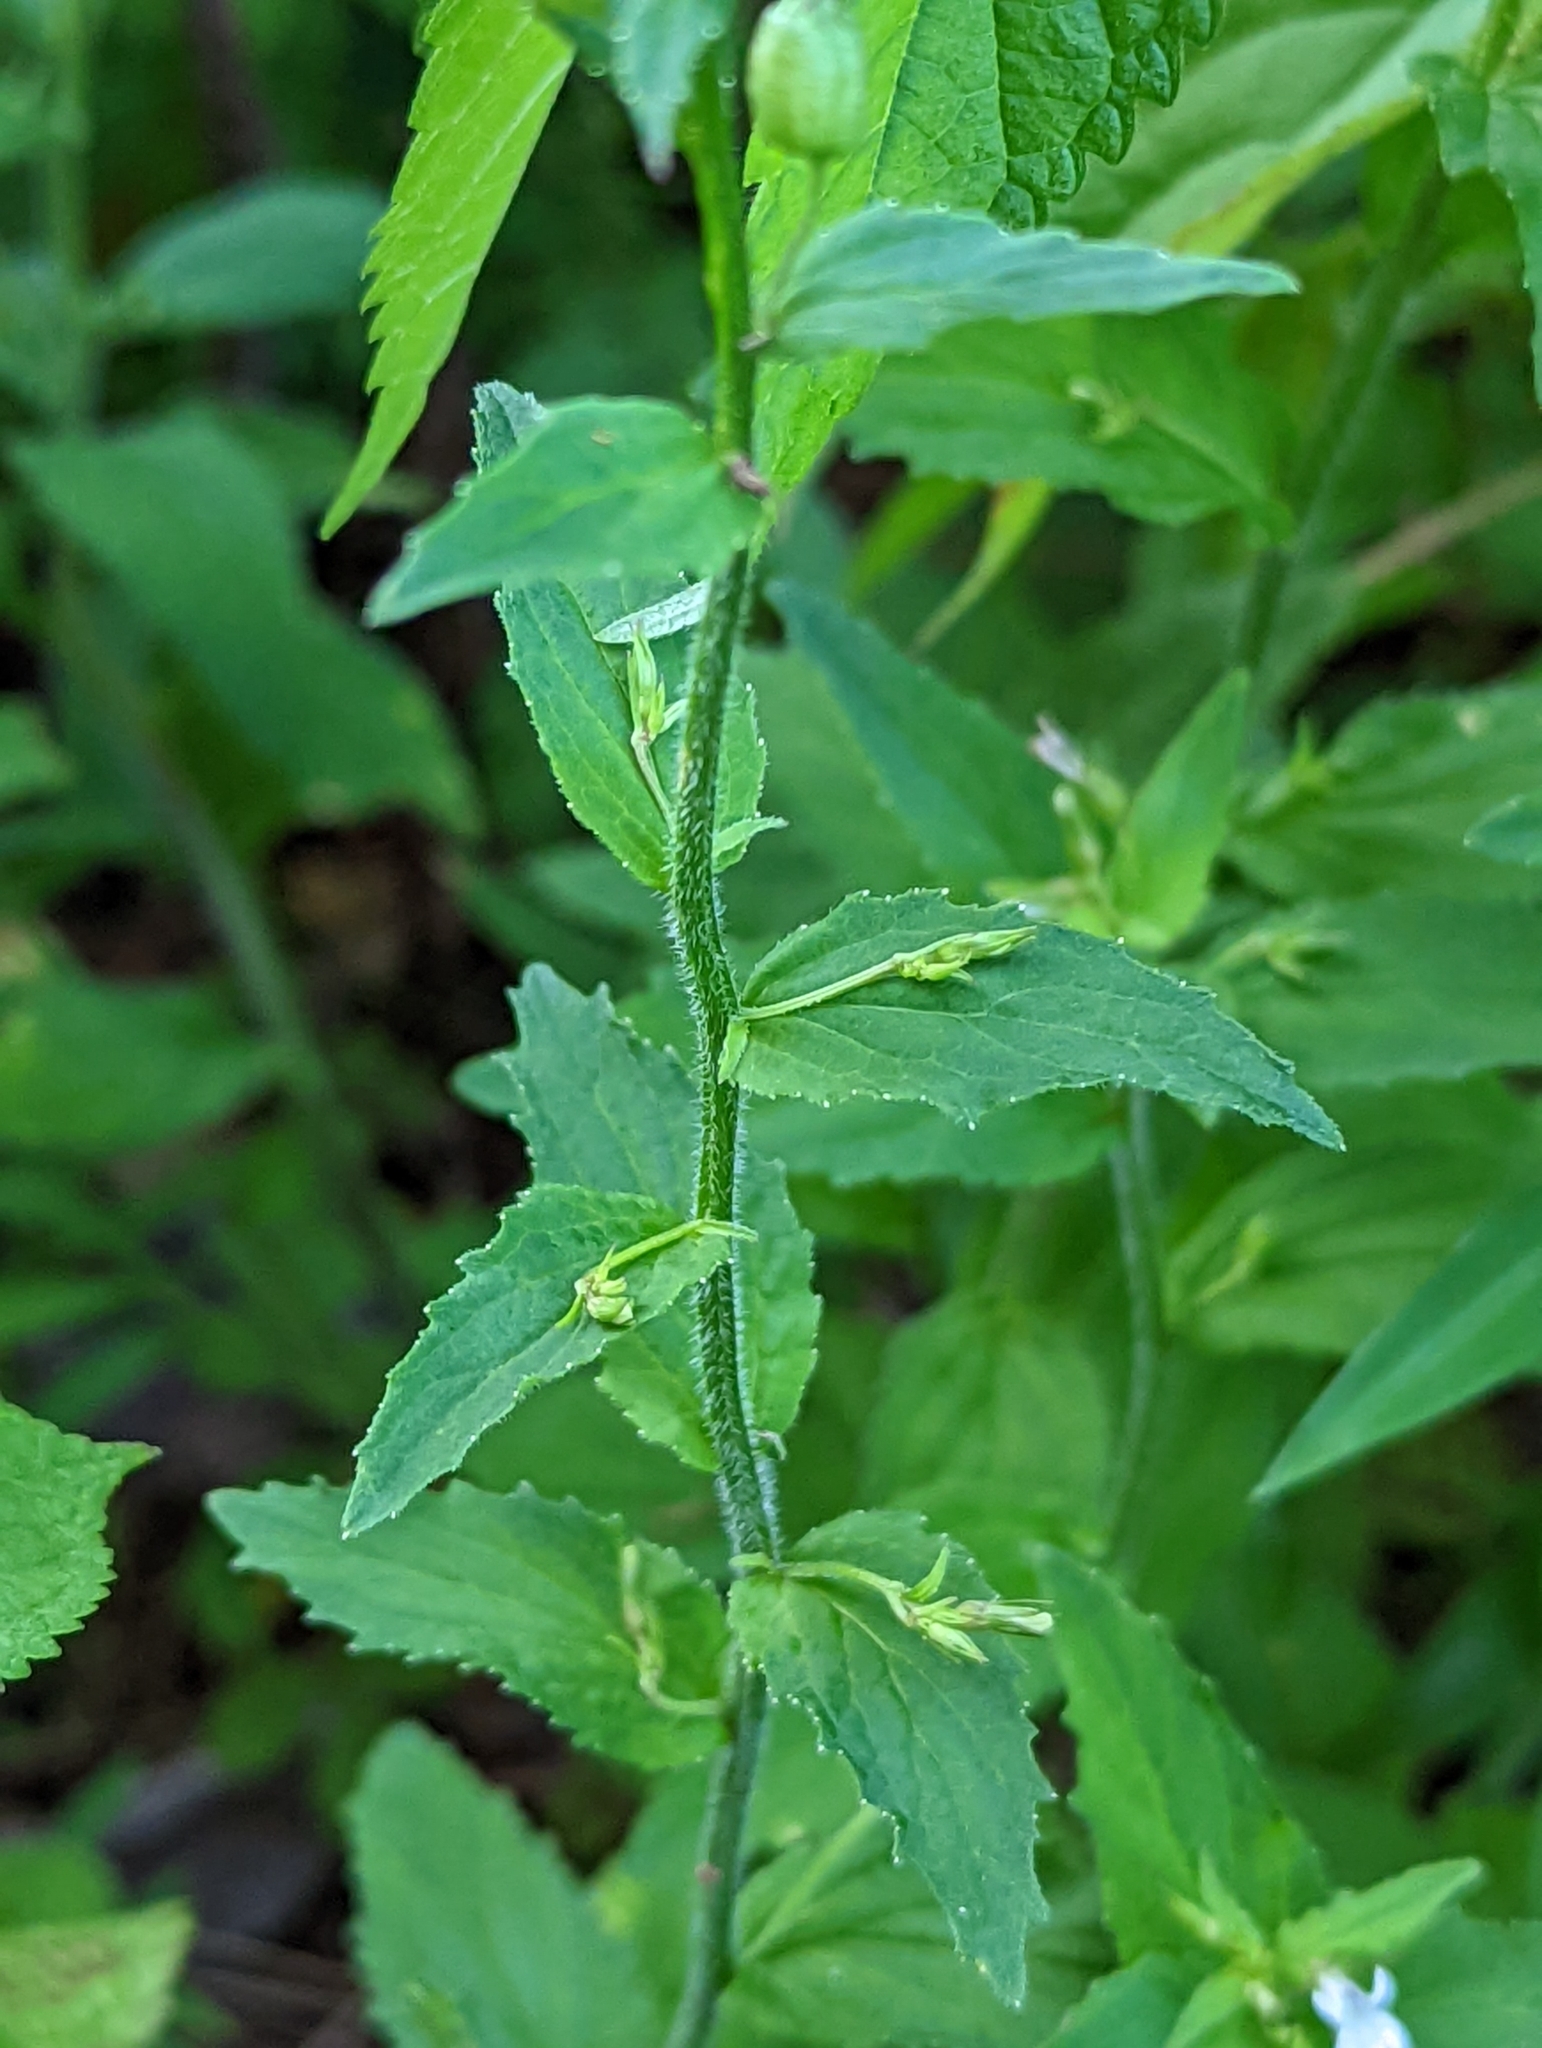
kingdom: Plantae
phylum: Tracheophyta
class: Magnoliopsida
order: Asterales
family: Campanulaceae
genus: Lobelia
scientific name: Lobelia inflata
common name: Indian tobacco
